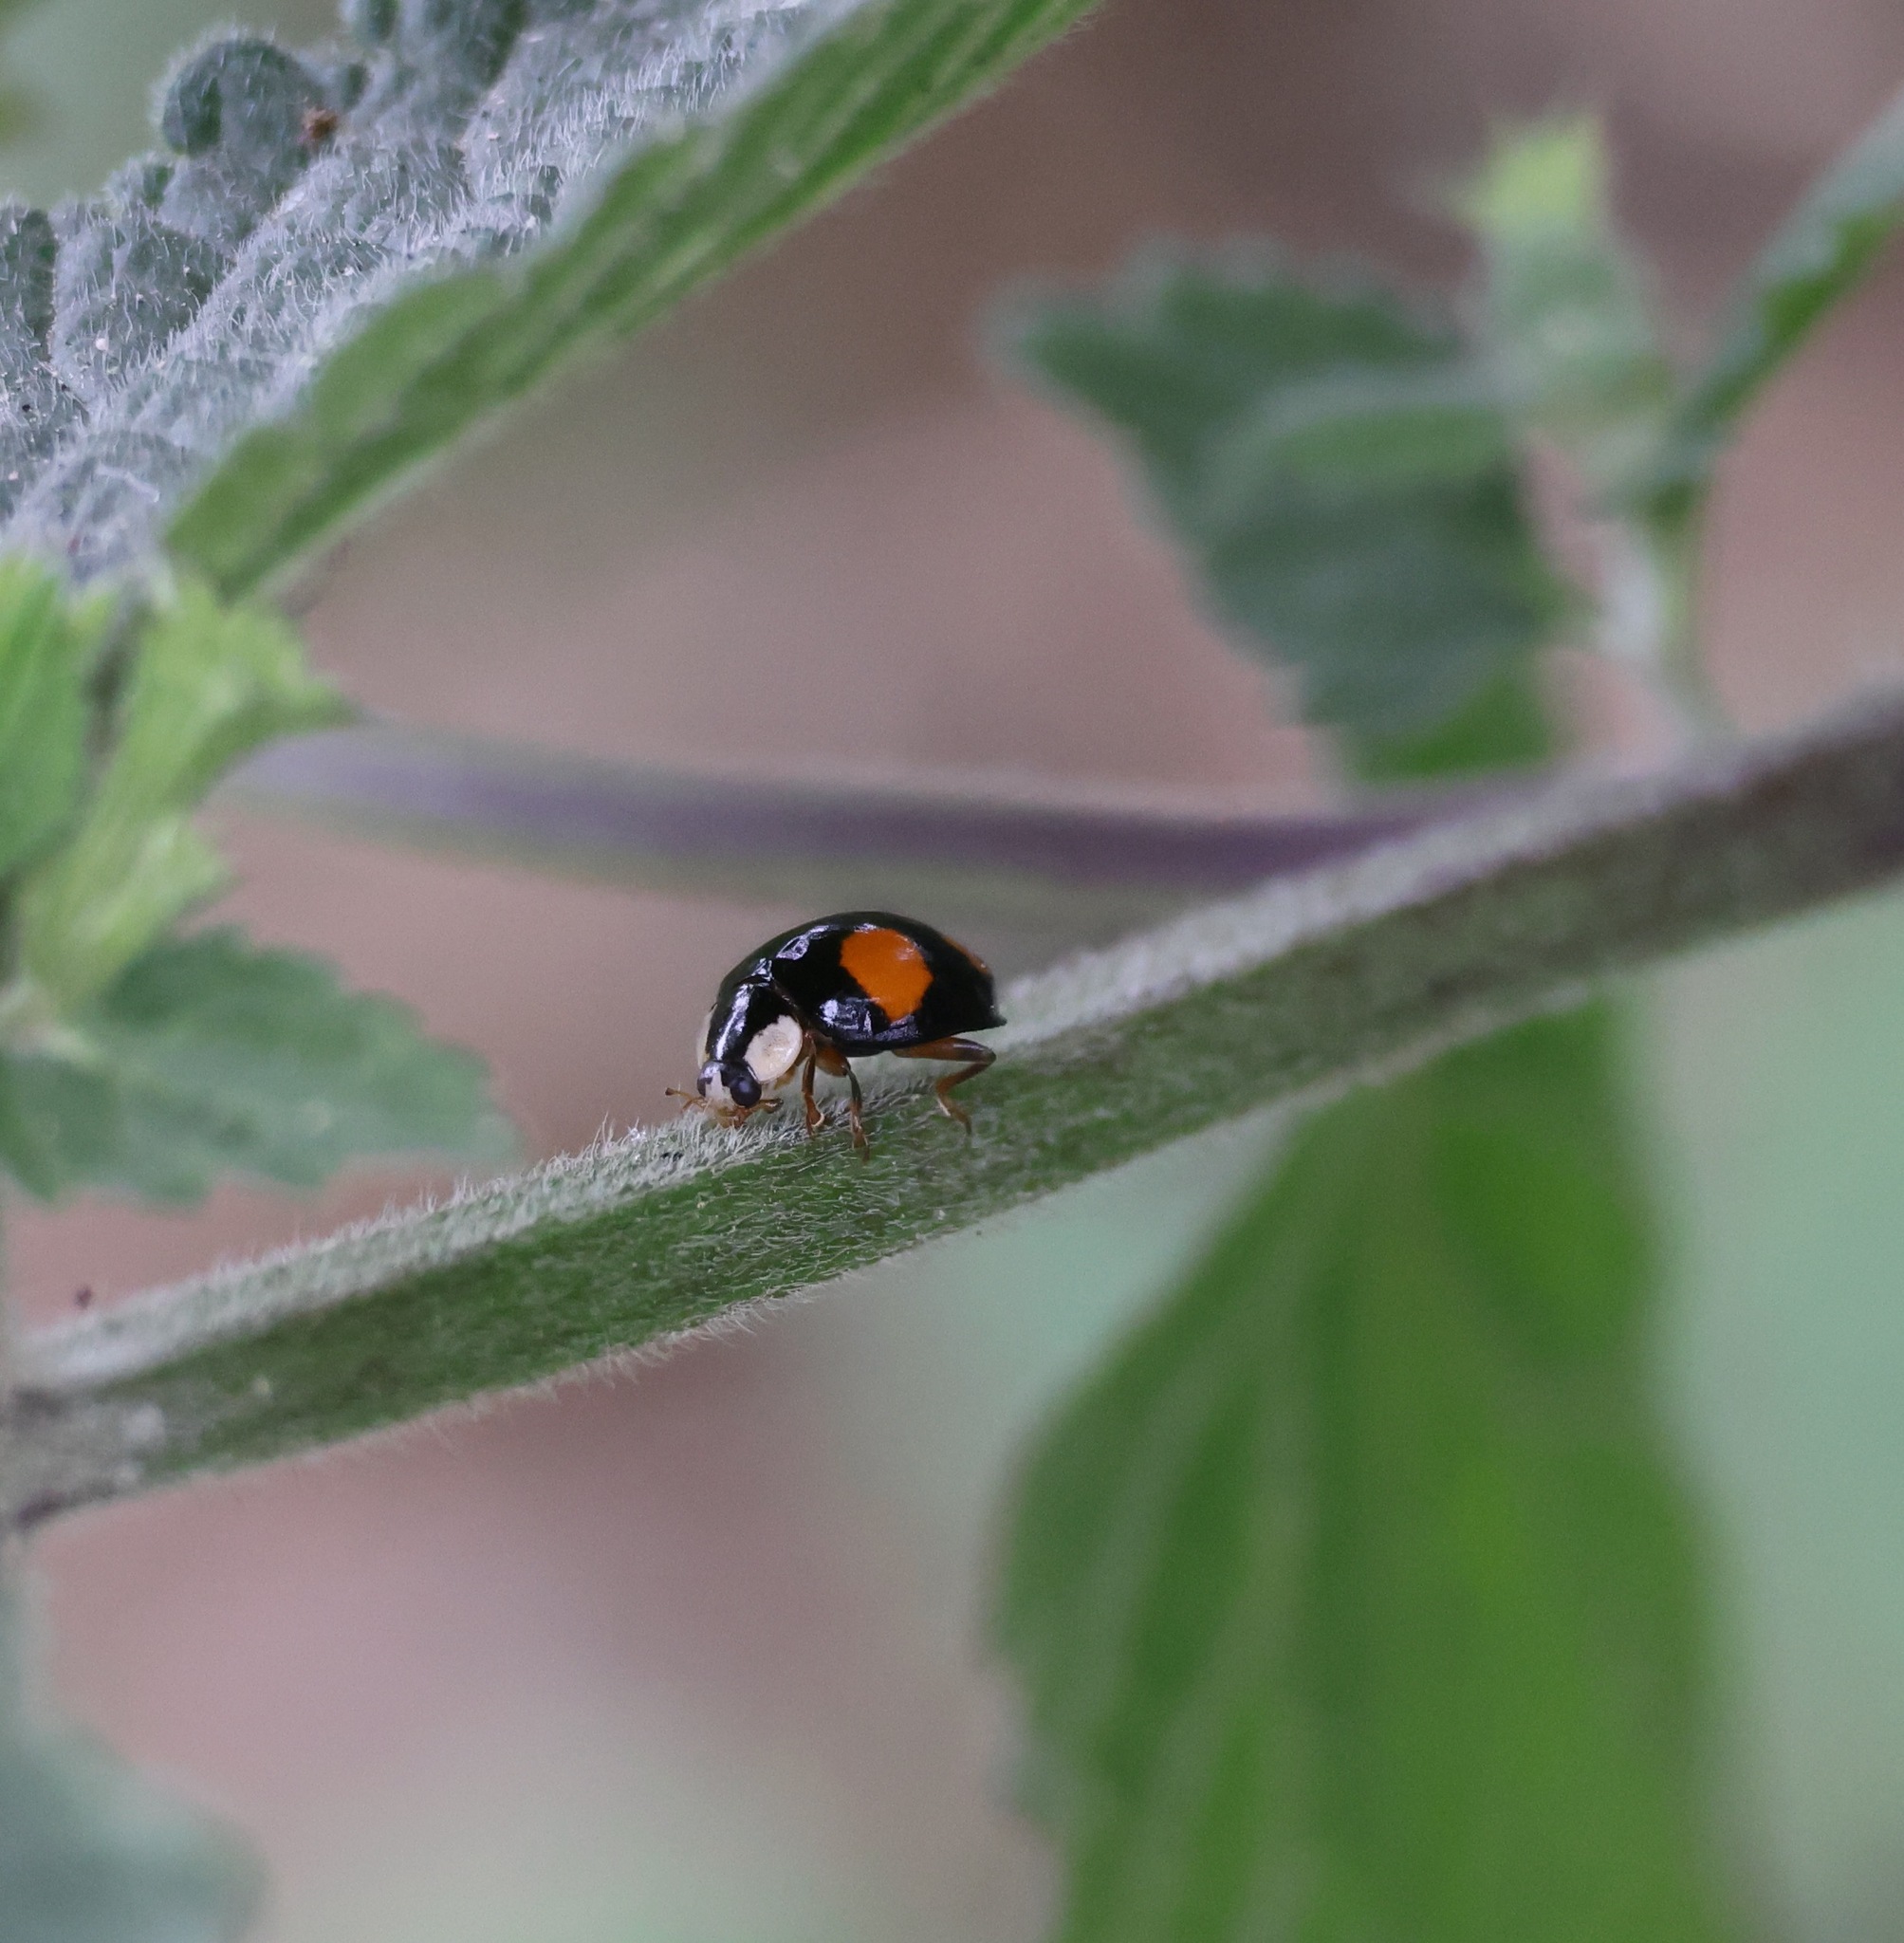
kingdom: Animalia
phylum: Arthropoda
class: Insecta
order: Coleoptera
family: Coccinellidae
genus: Harmonia
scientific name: Harmonia axyridis
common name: Harlequin ladybird
